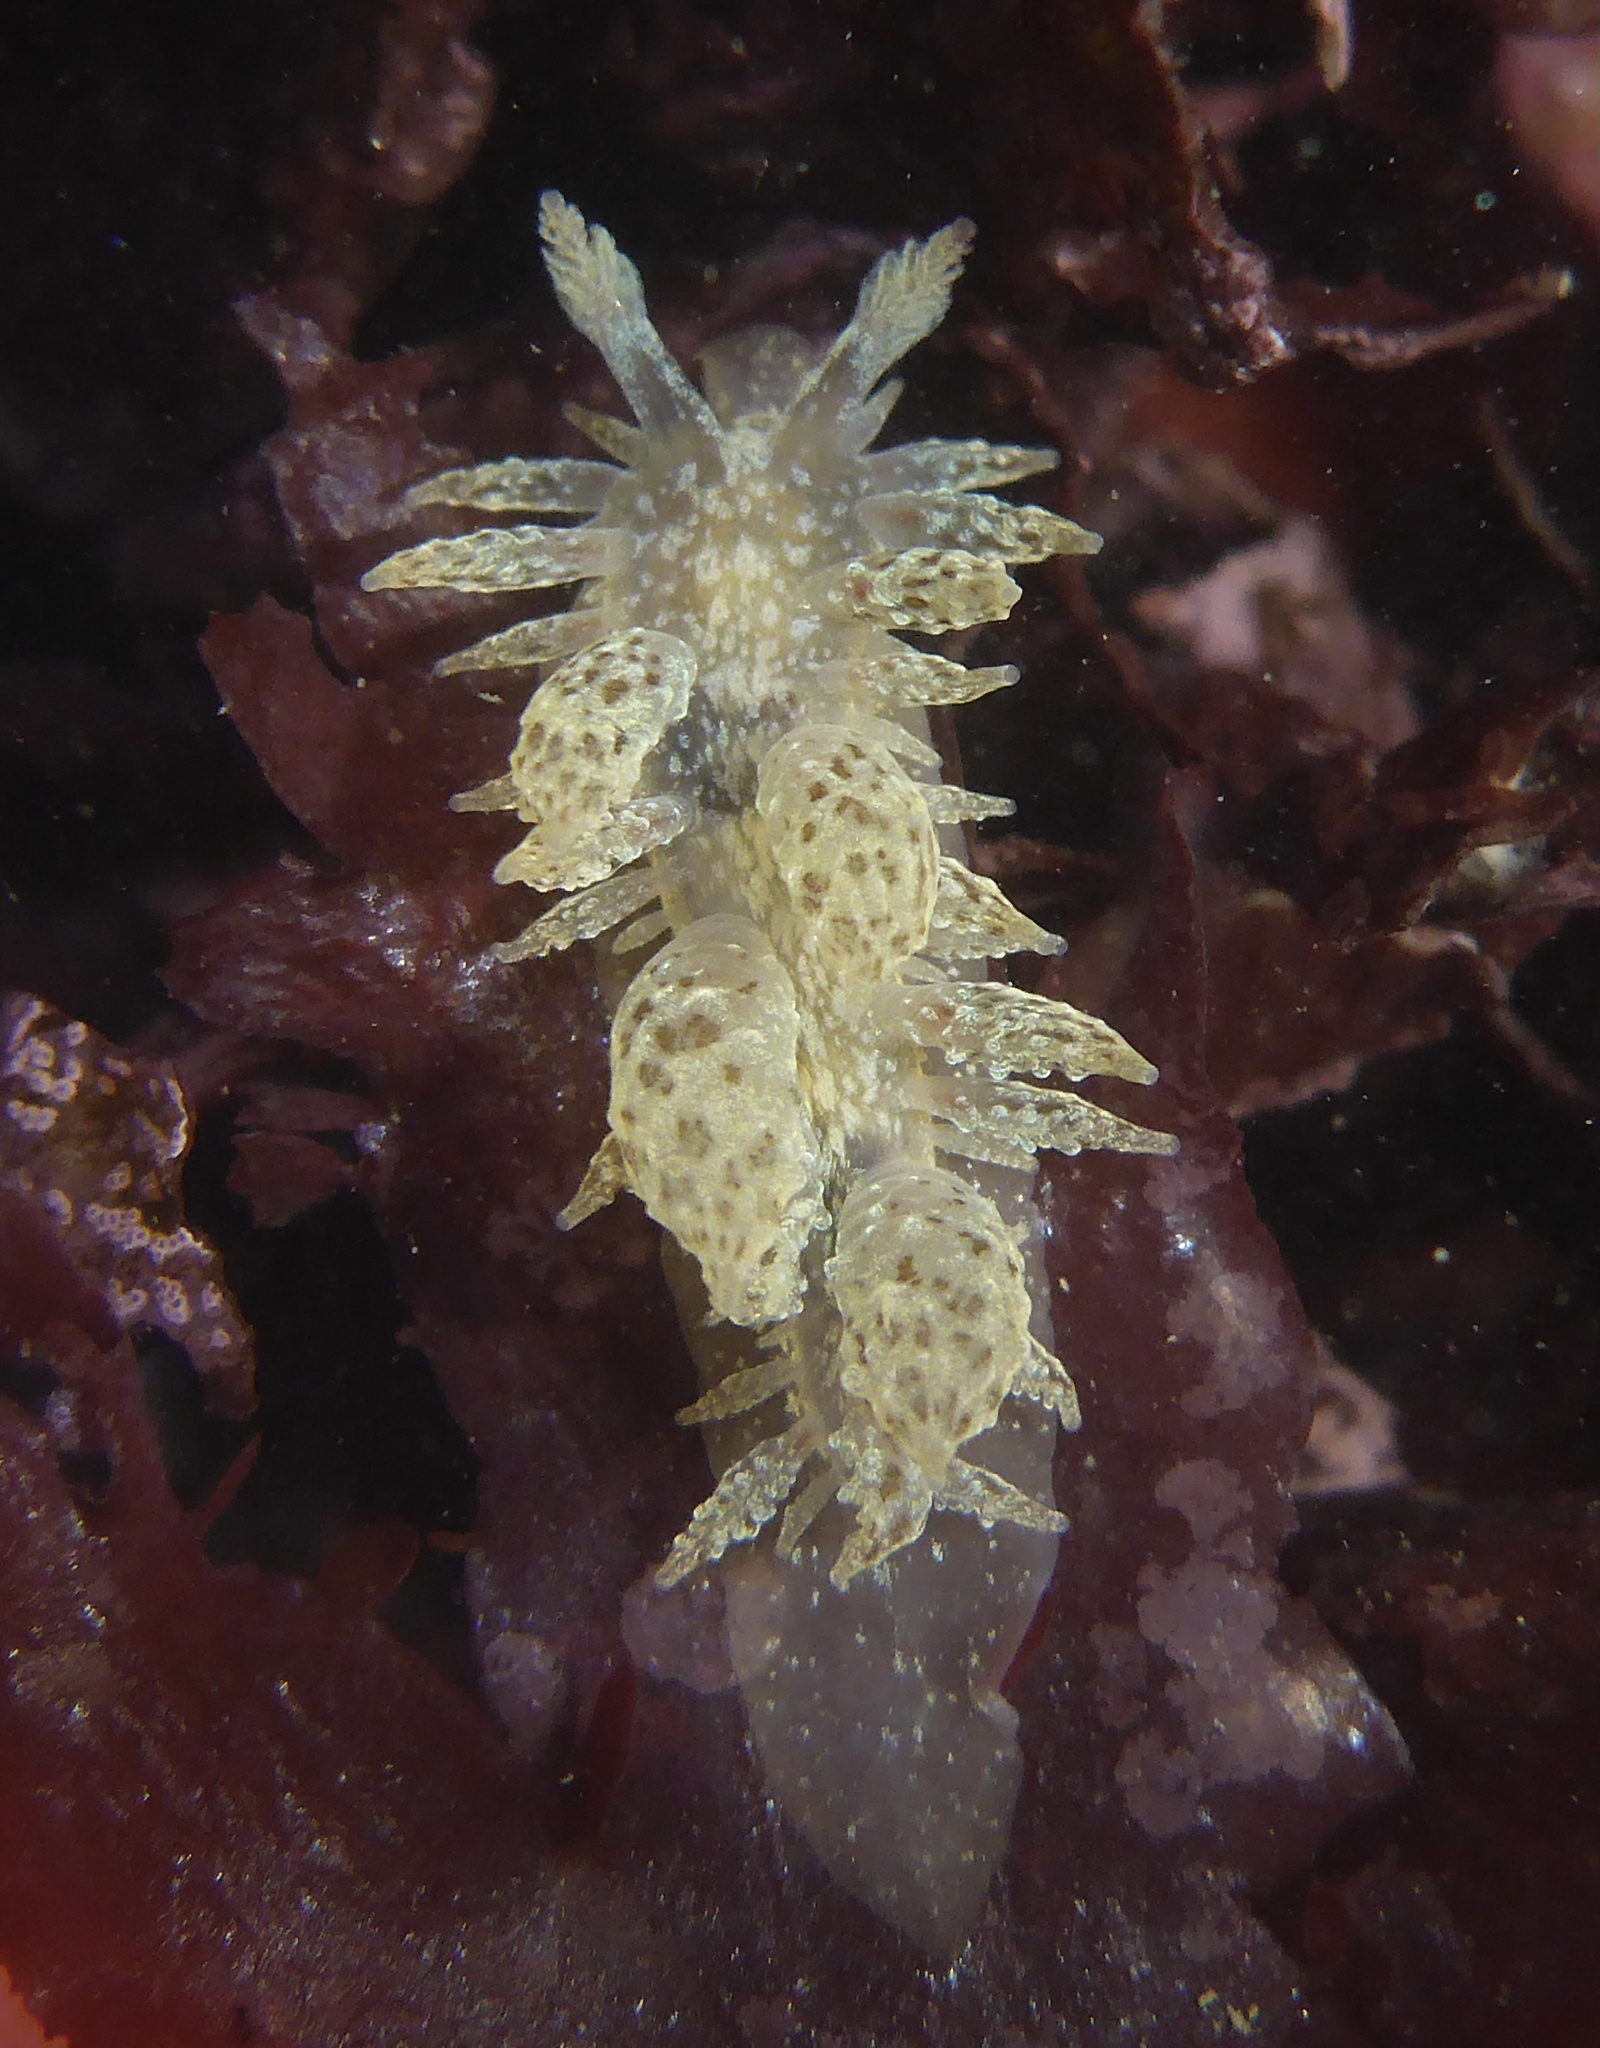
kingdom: Animalia
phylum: Mollusca
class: Gastropoda
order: Nudibranchia
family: Dironidae
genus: Dirona
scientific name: Dirona picta
